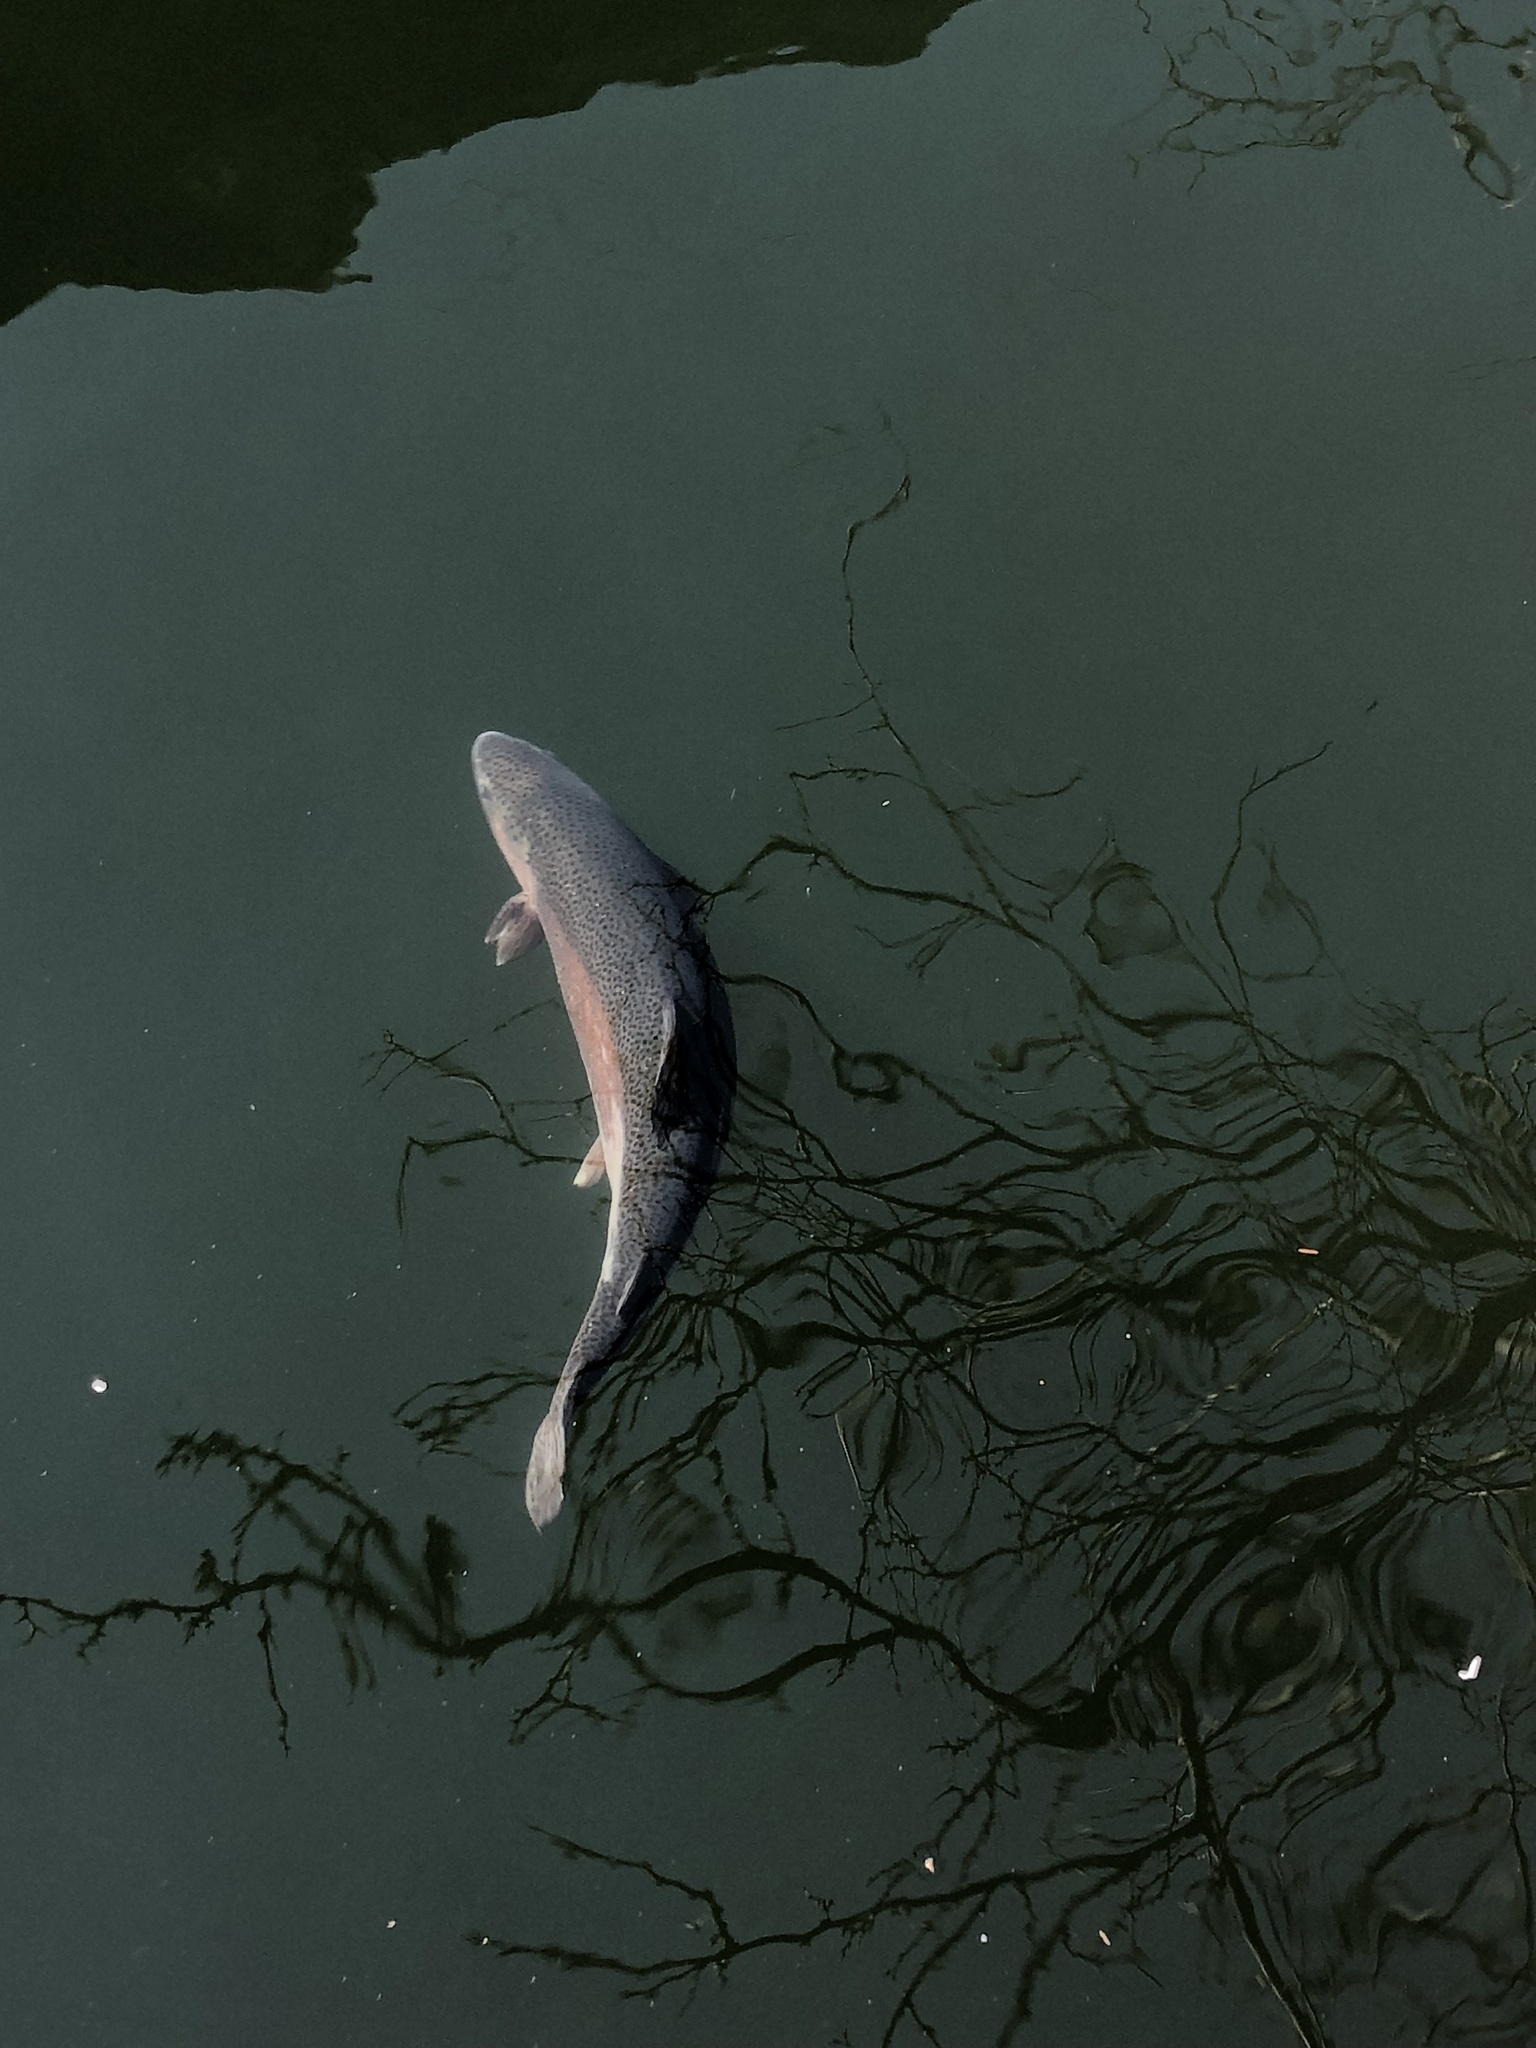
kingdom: Animalia
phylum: Chordata
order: Salmoniformes
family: Salmonidae
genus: Oncorhynchus
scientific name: Oncorhynchus mykiss
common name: Rainbow trout
